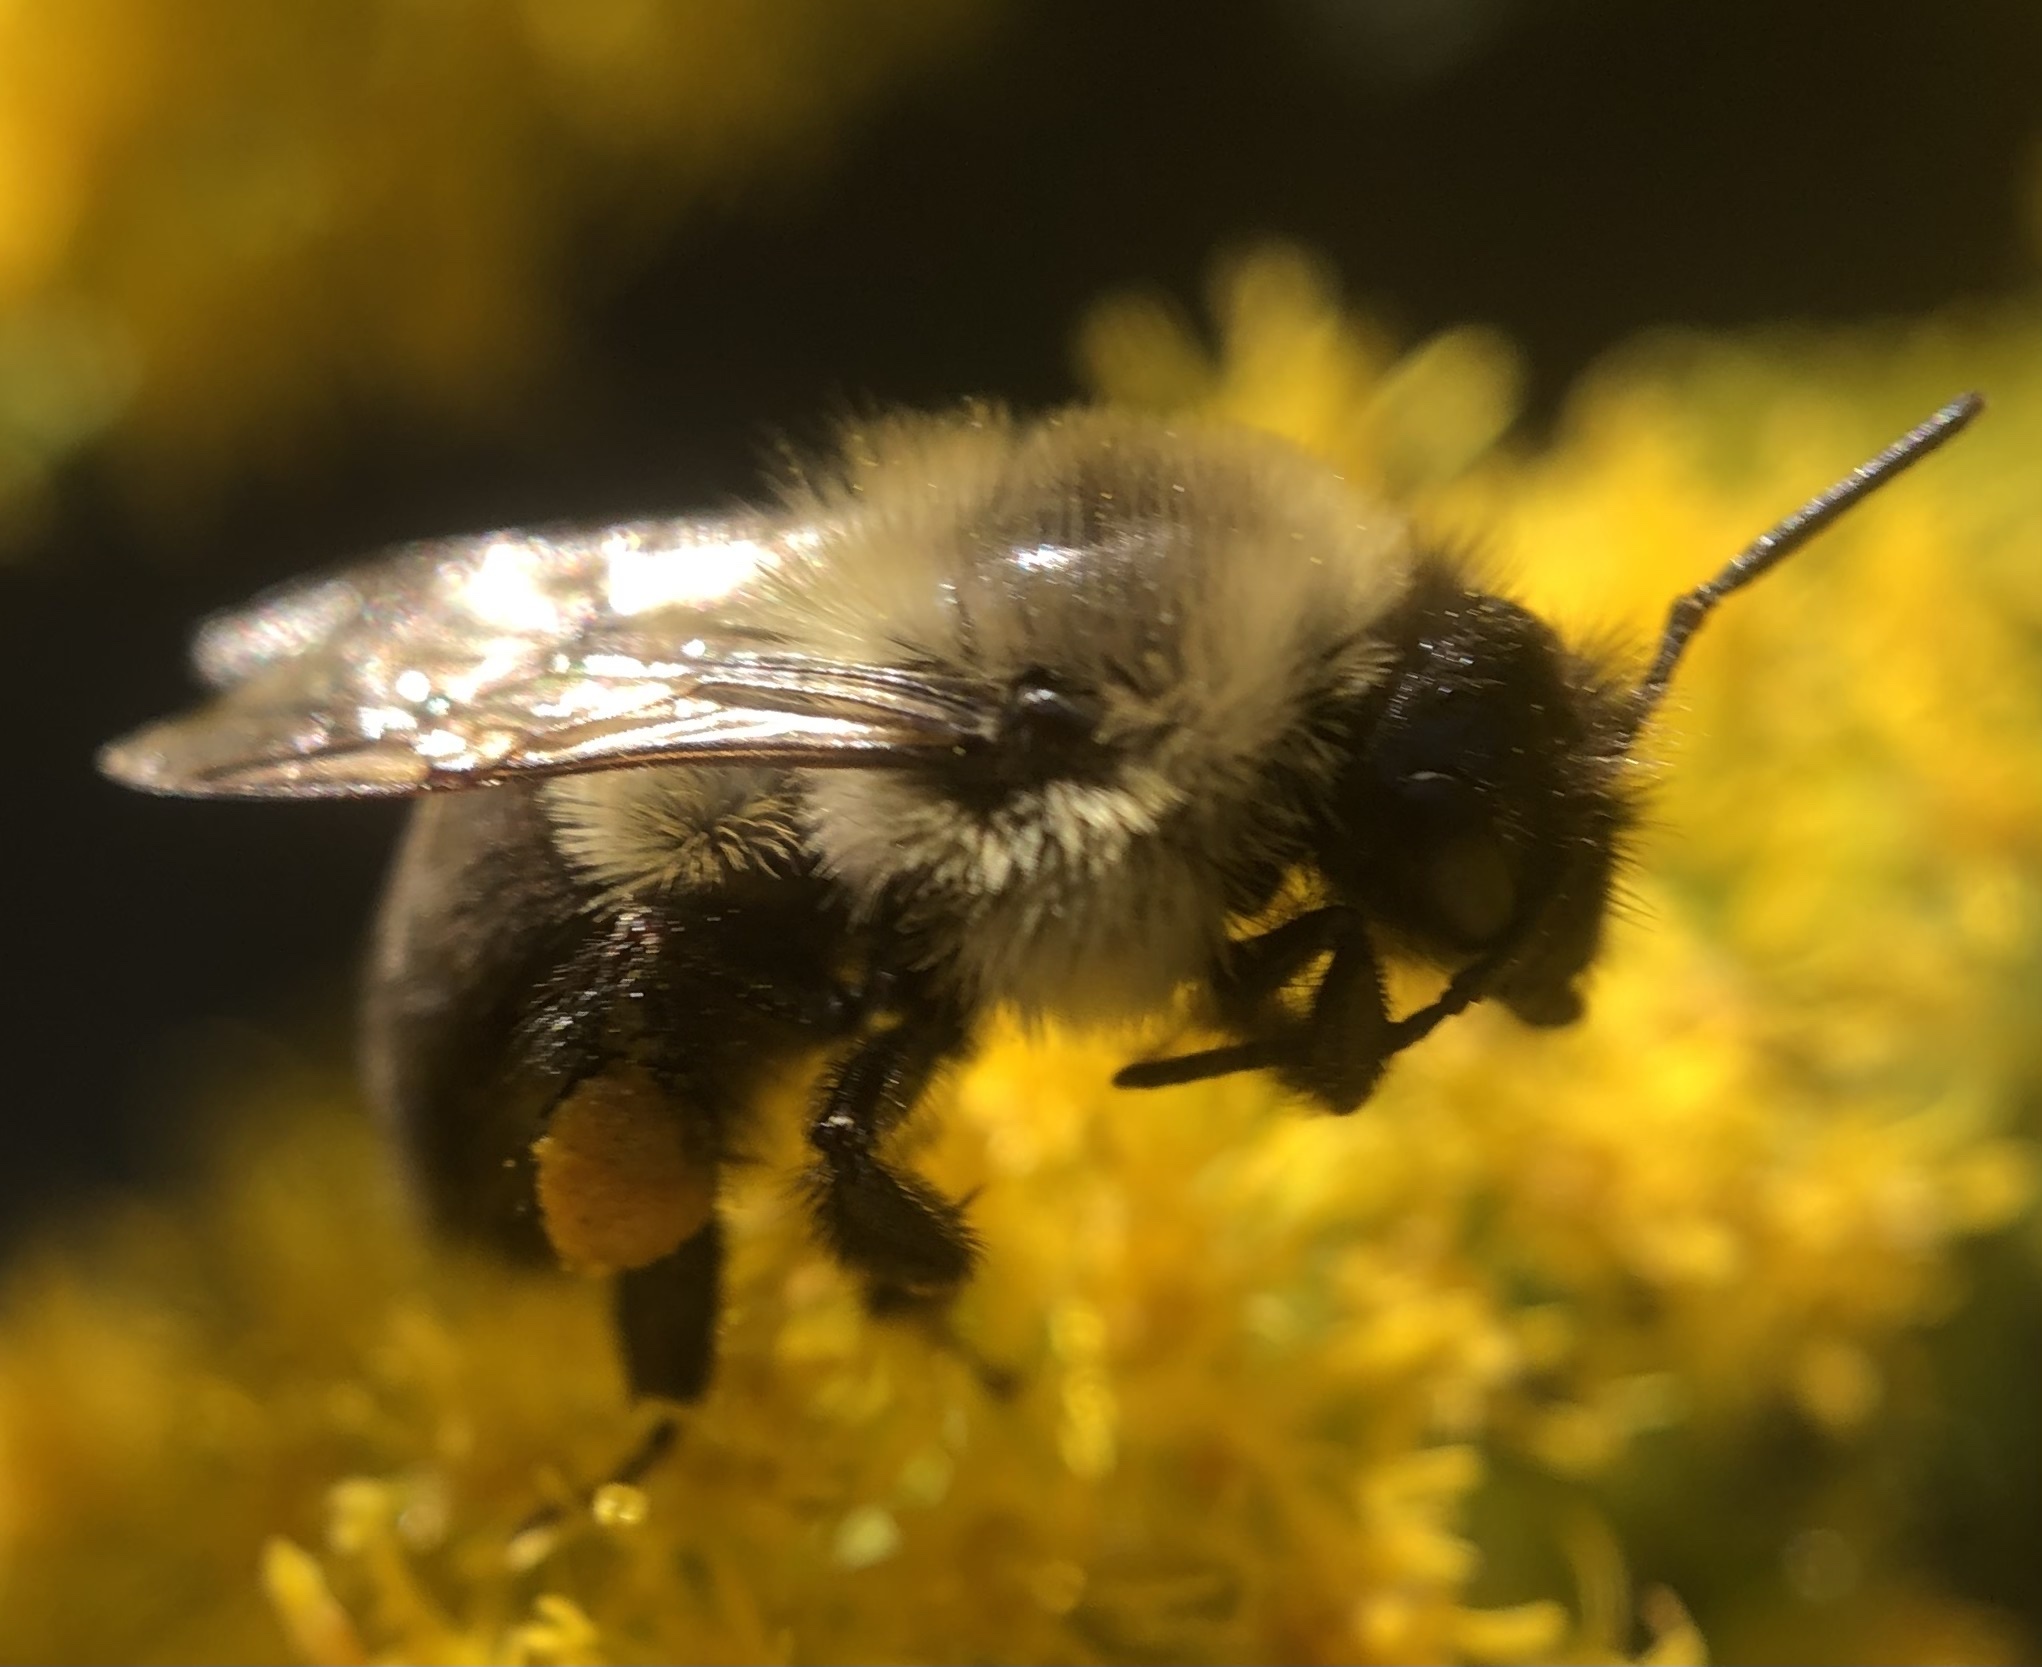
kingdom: Animalia
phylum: Arthropoda
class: Insecta
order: Hymenoptera
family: Apidae
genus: Bombus
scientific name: Bombus impatiens
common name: Common eastern bumble bee
